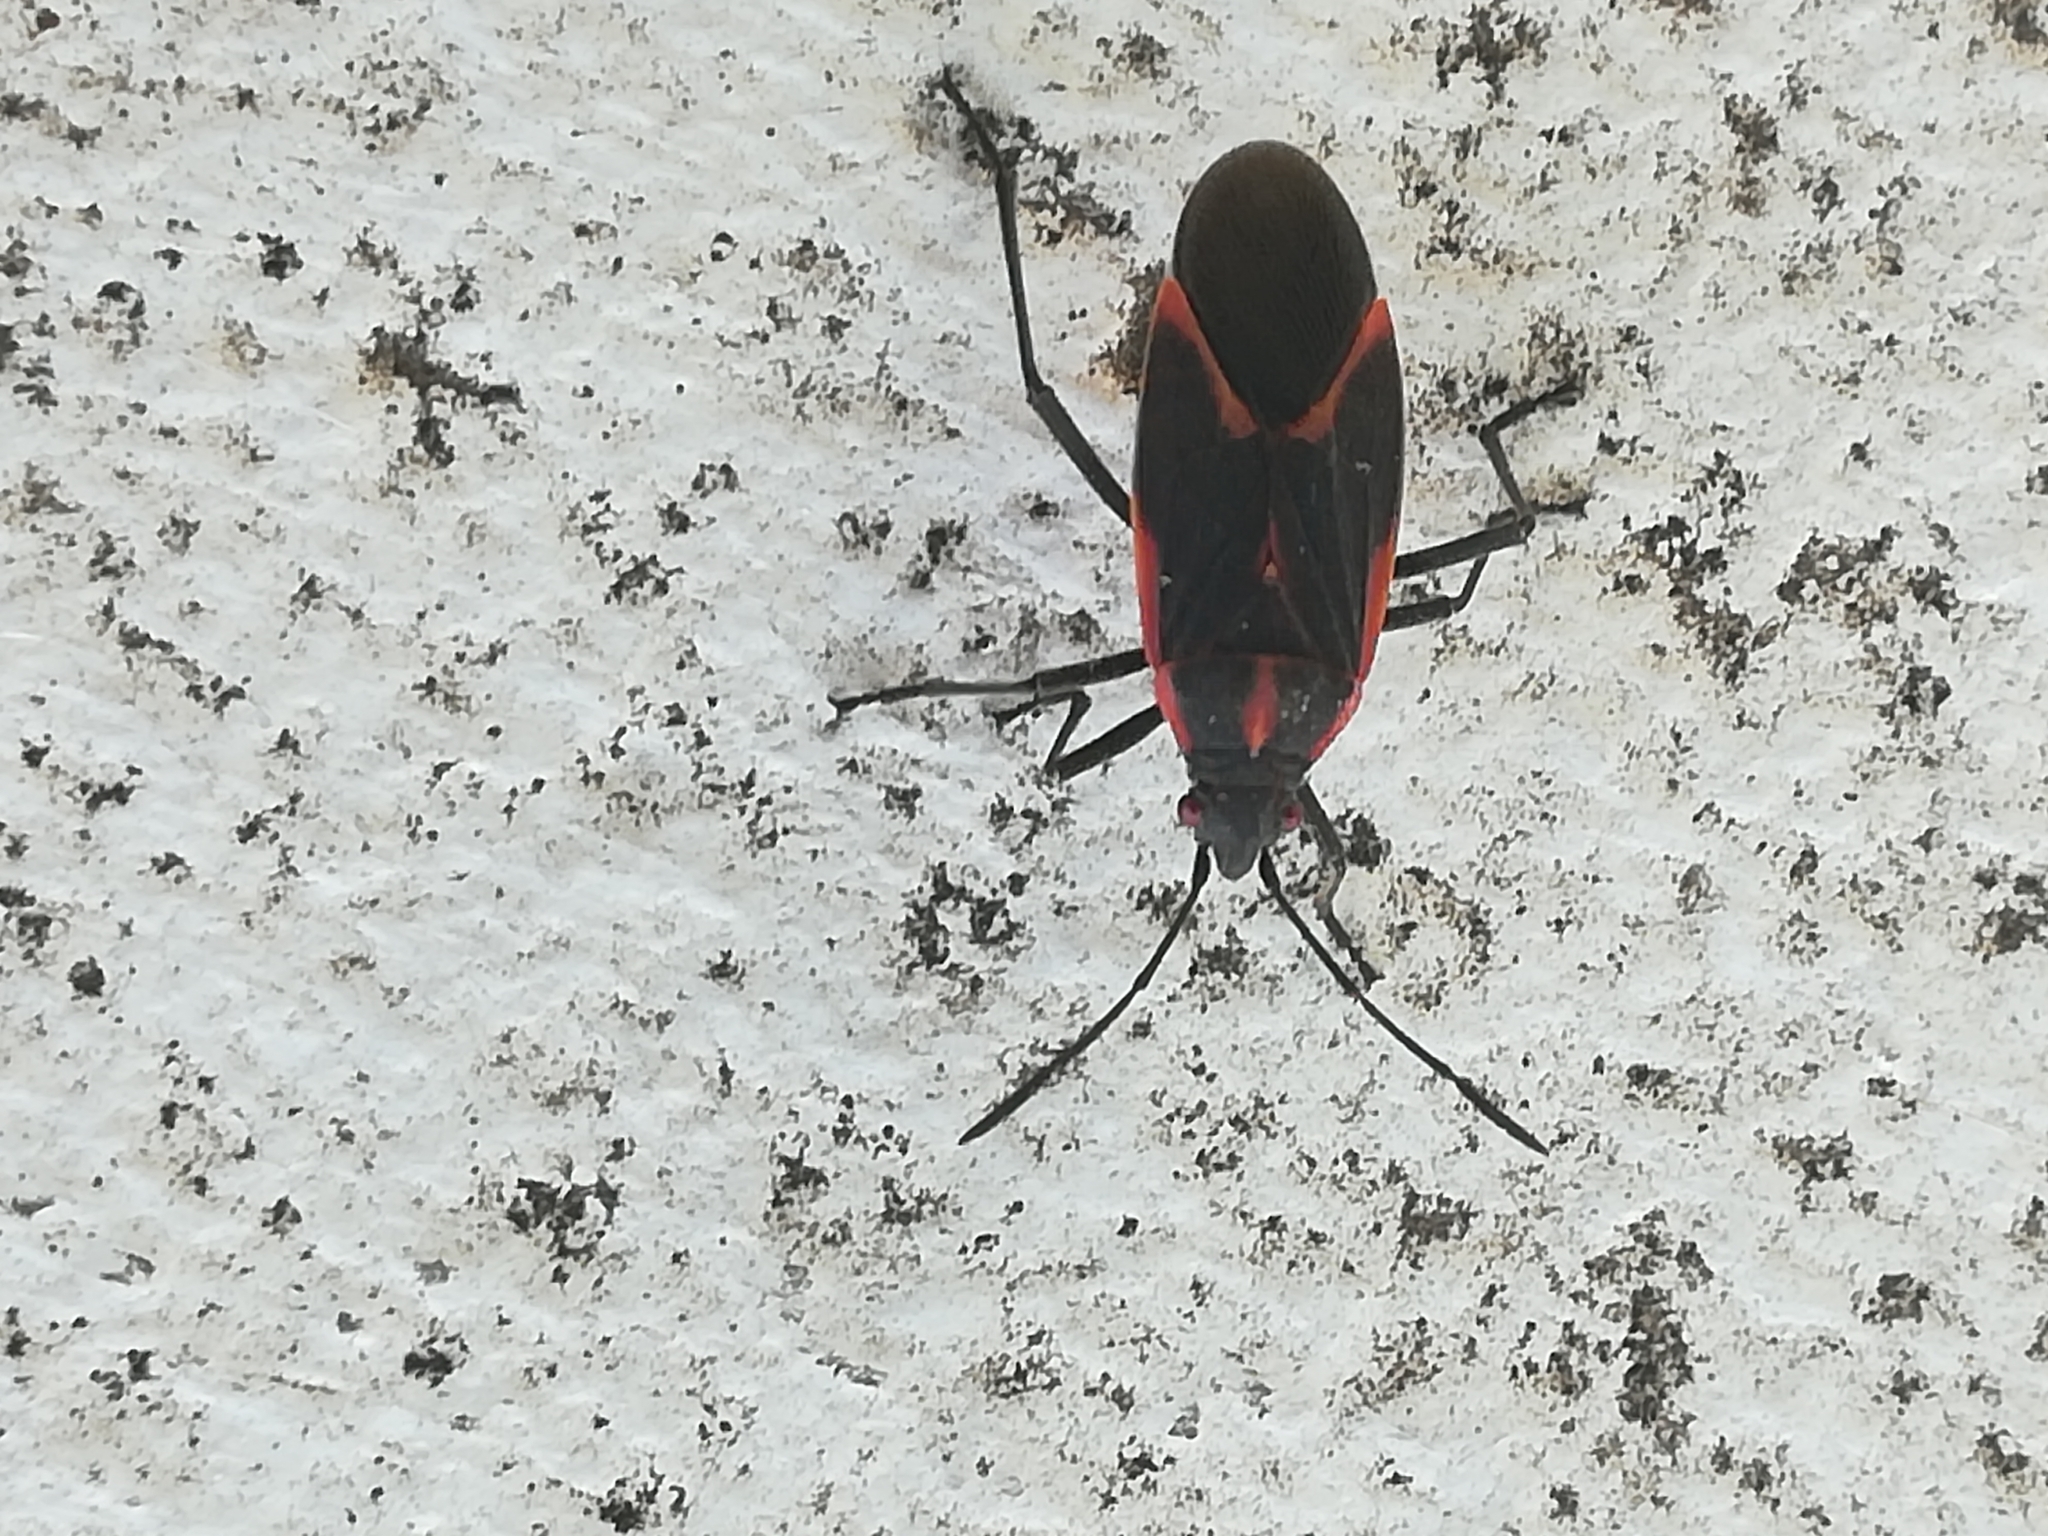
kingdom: Animalia
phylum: Arthropoda
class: Insecta
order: Hemiptera
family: Rhopalidae
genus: Boisea
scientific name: Boisea trivittata
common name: Boxelder bug
